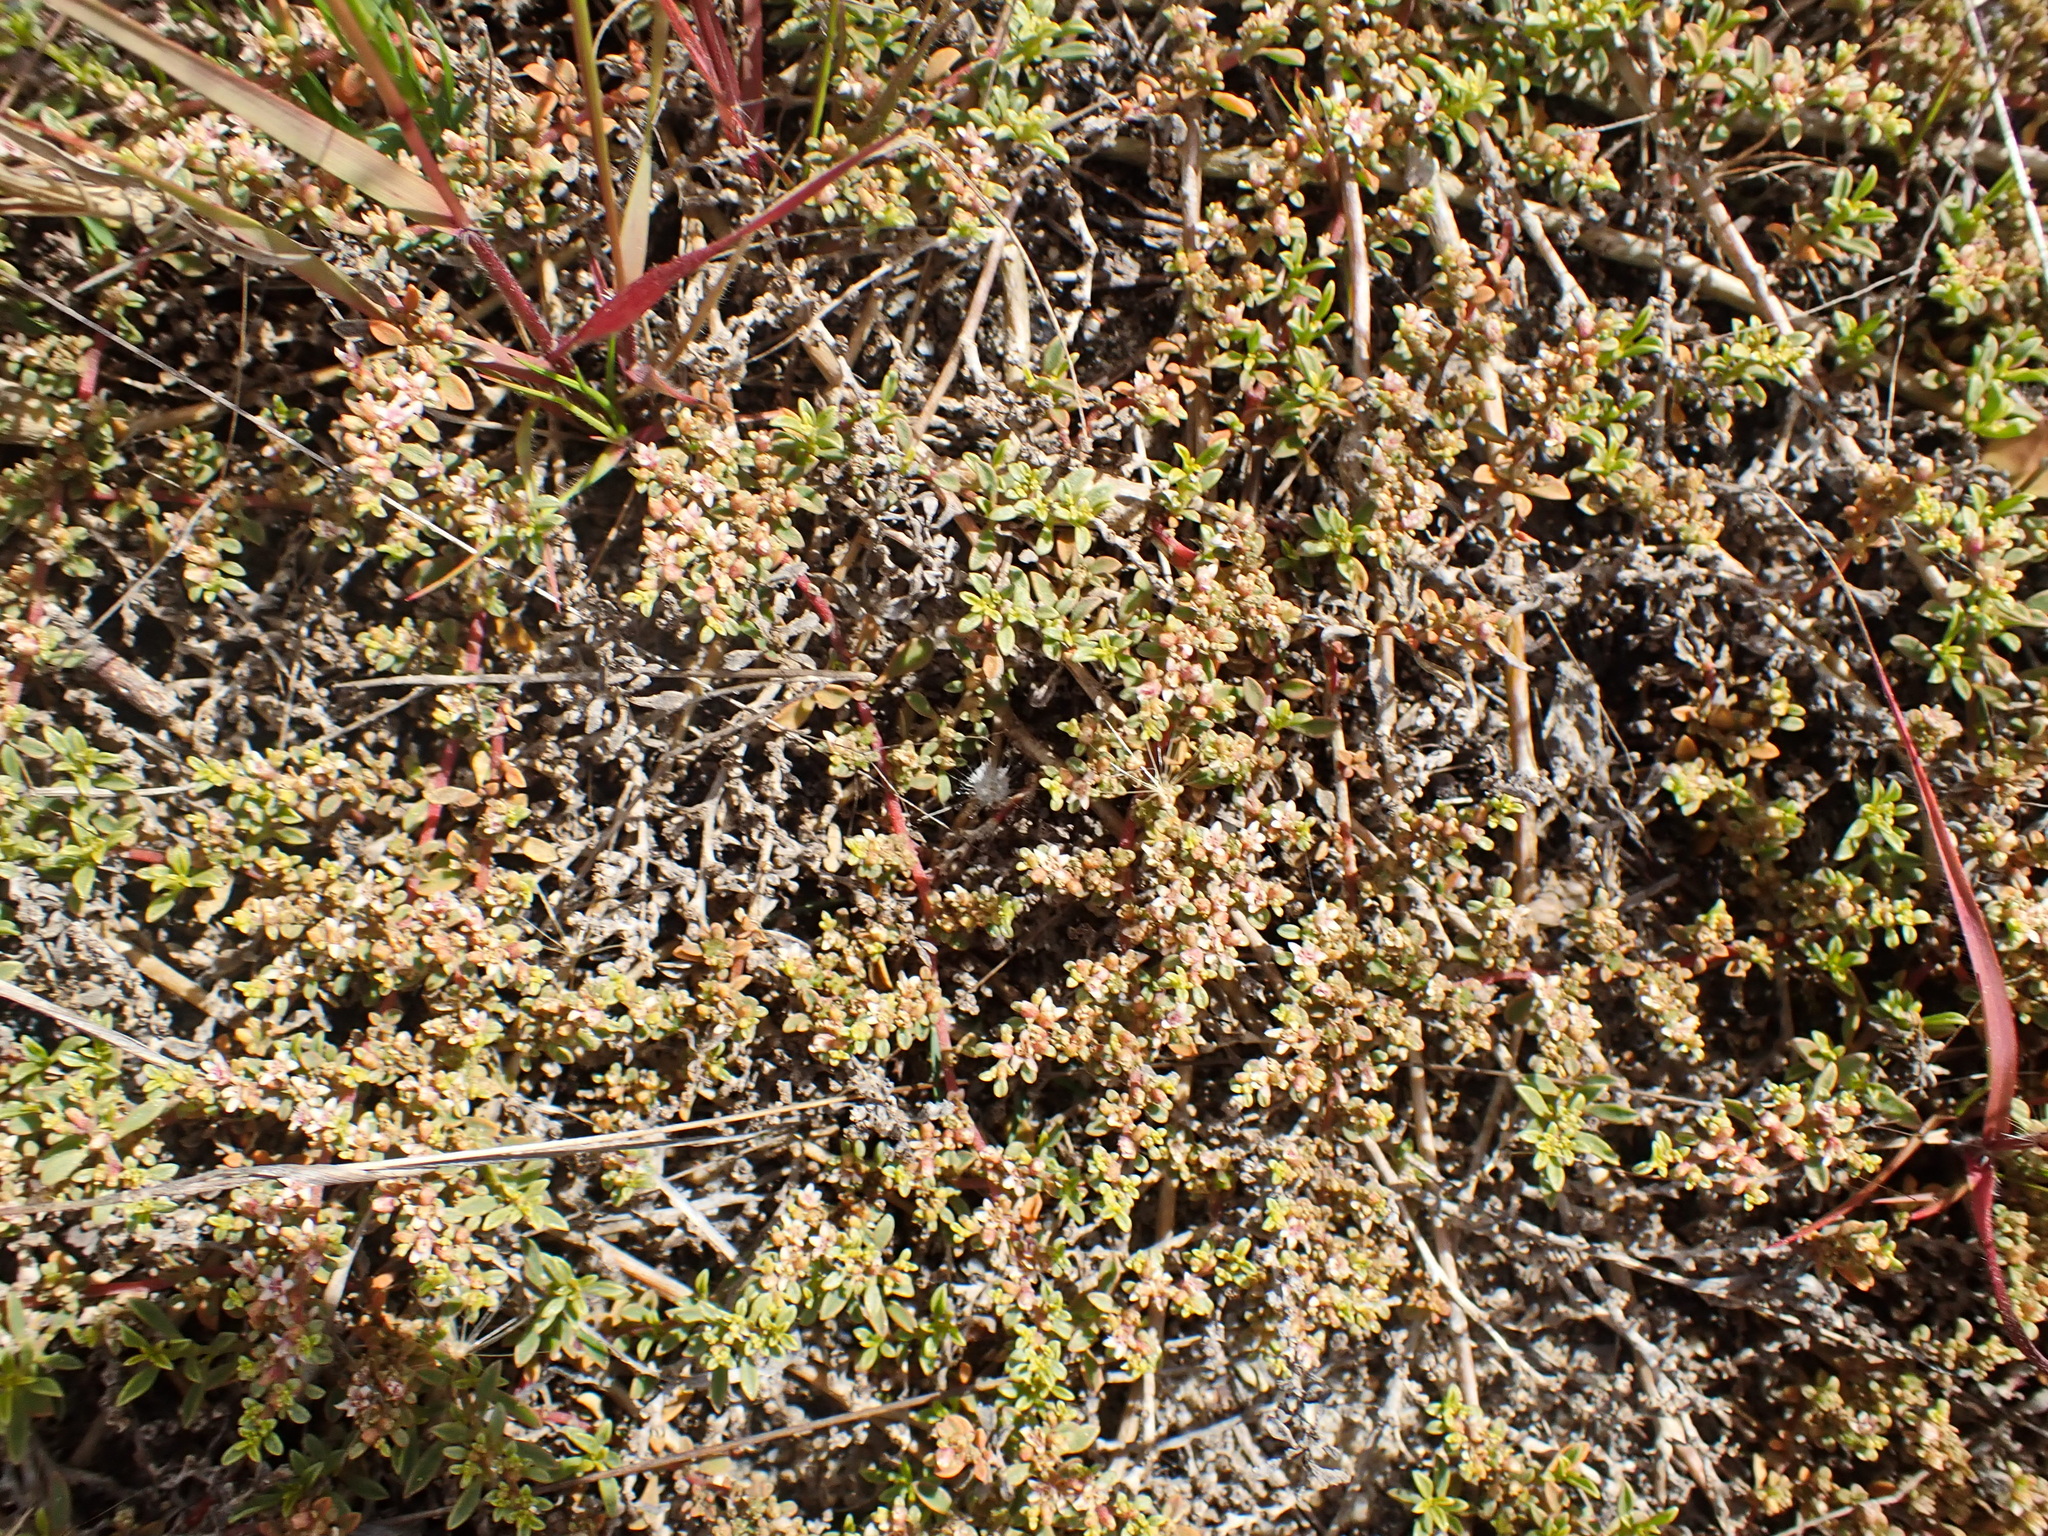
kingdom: Plantae
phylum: Tracheophyta
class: Magnoliopsida
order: Caryophyllales
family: Aizoaceae
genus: Aizoon
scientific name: Aizoon africanum
